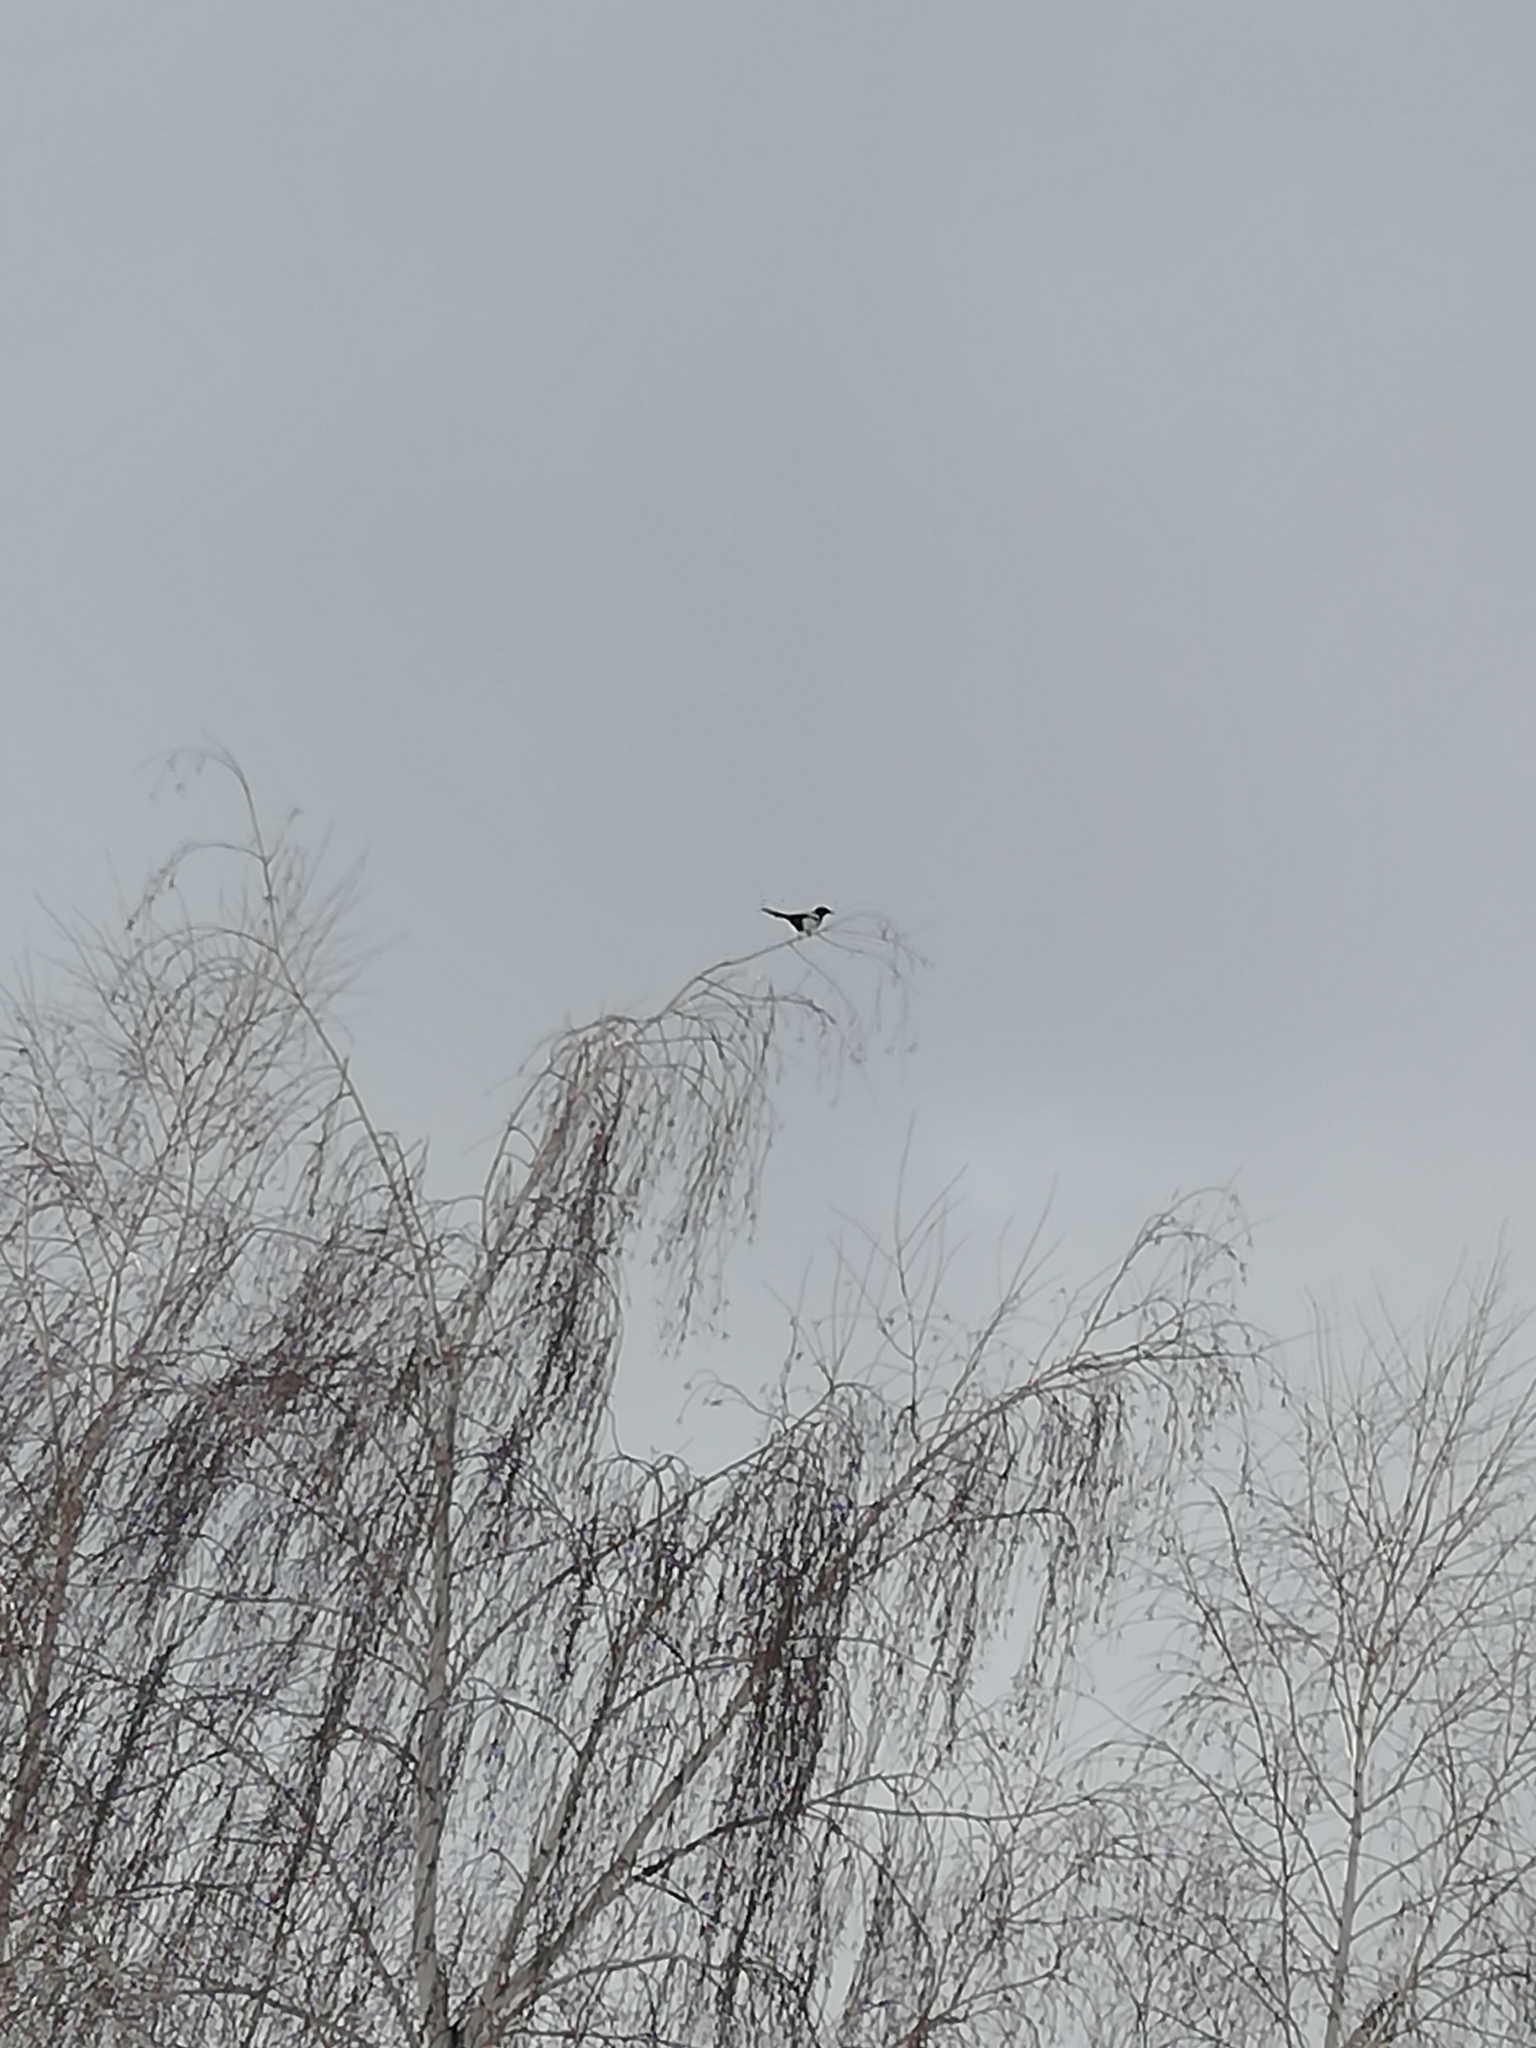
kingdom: Animalia
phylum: Chordata
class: Aves
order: Passeriformes
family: Corvidae
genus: Pica
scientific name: Pica pica
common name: Eurasian magpie
